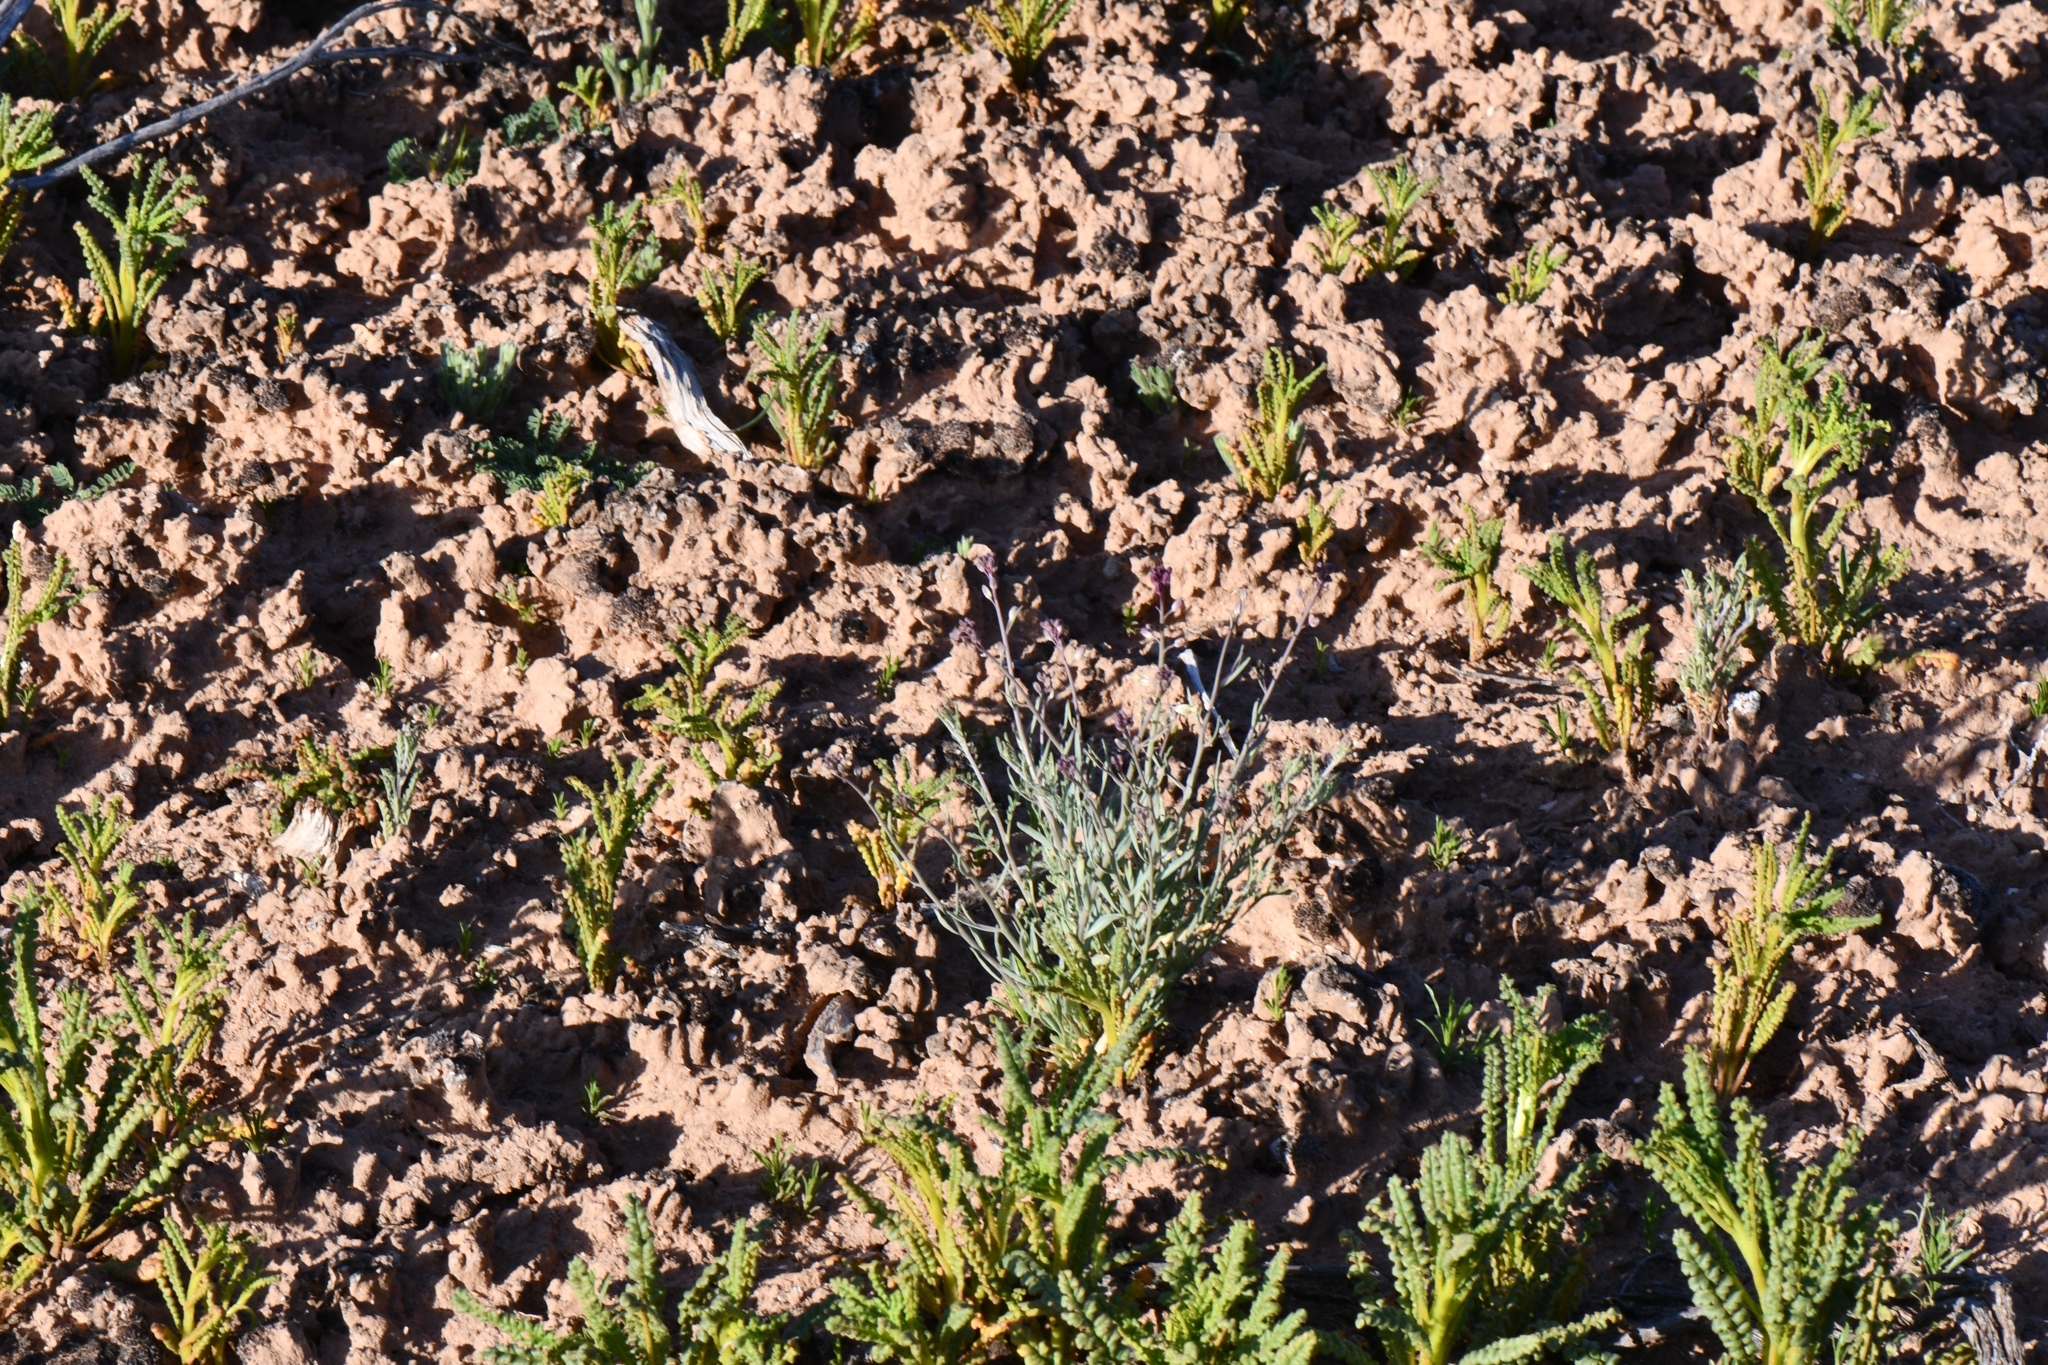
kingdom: Plantae
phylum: Tracheophyta
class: Magnoliopsida
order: Brassicales
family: Brassicaceae
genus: Streptanthus
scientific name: Streptanthus longirostris
